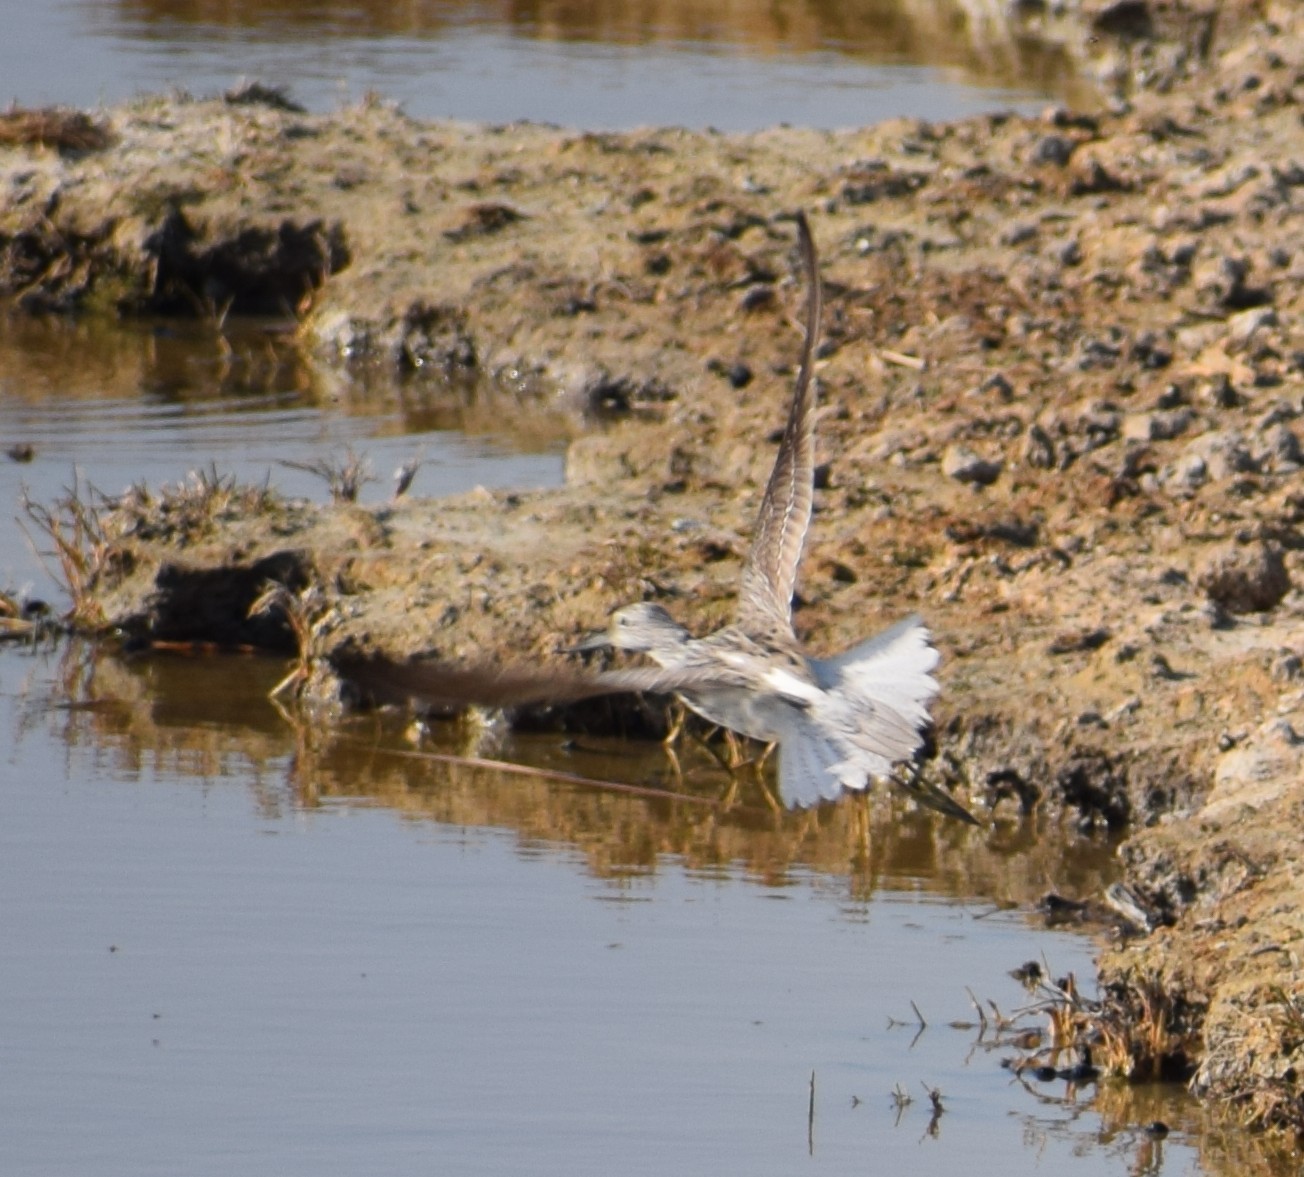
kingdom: Animalia
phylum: Chordata
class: Aves
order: Charadriiformes
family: Scolopacidae
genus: Tringa
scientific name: Tringa nebularia
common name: Common greenshank
